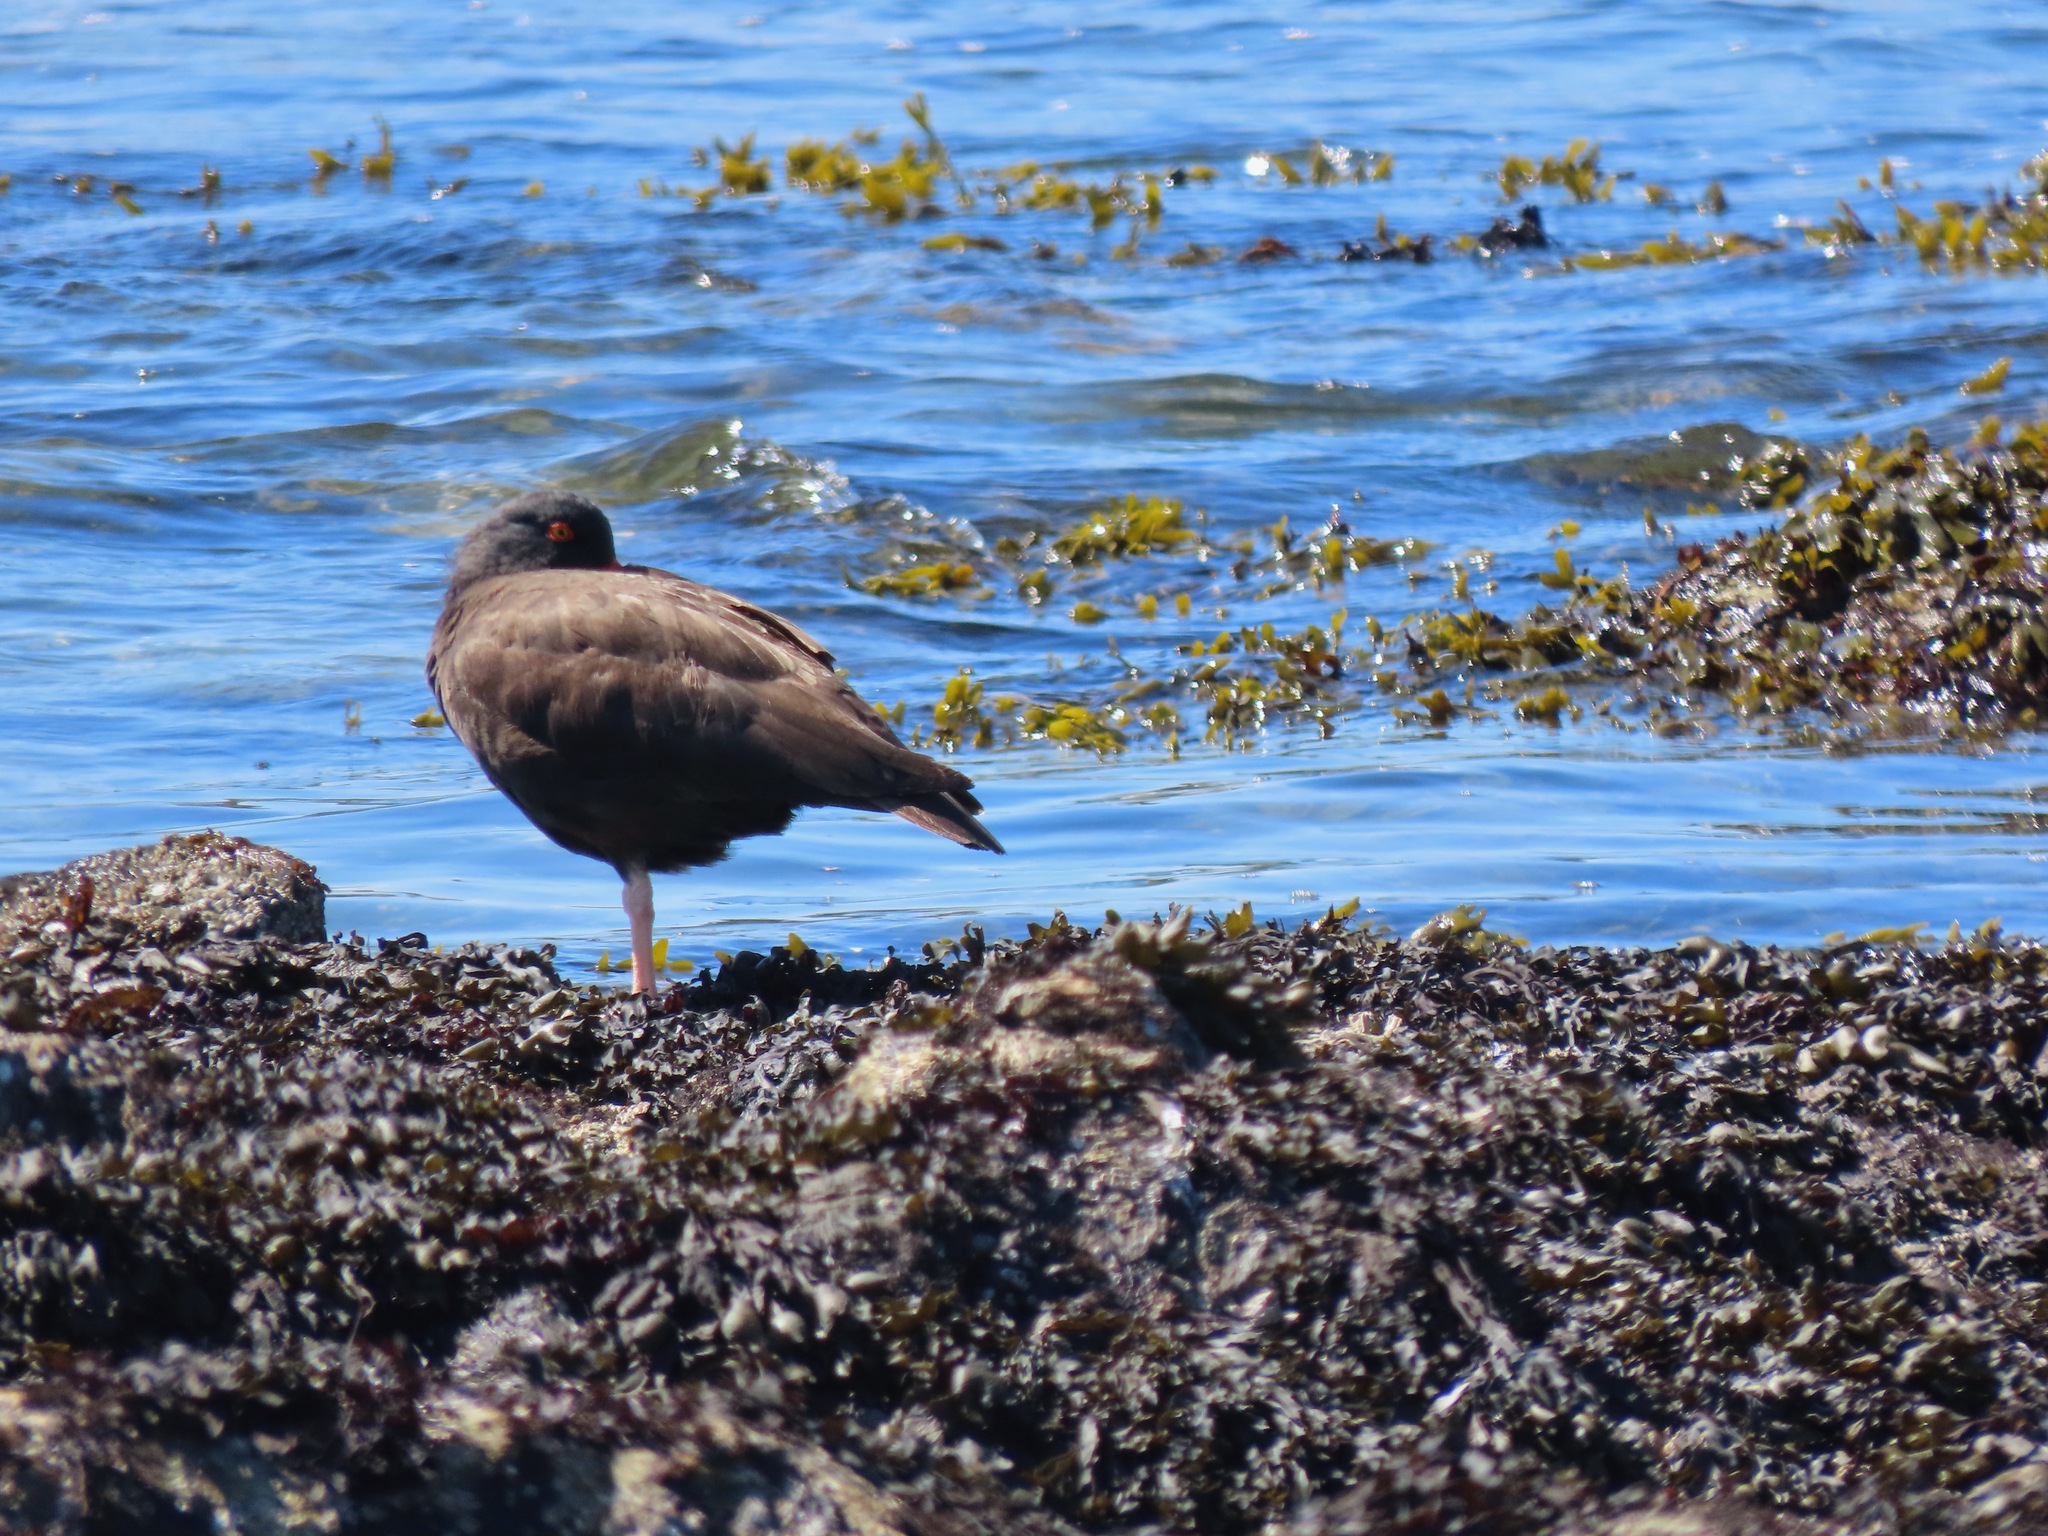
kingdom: Animalia
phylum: Chordata
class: Aves
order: Charadriiformes
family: Haematopodidae
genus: Haematopus
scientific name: Haematopus bachmani
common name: Black oystercatcher
